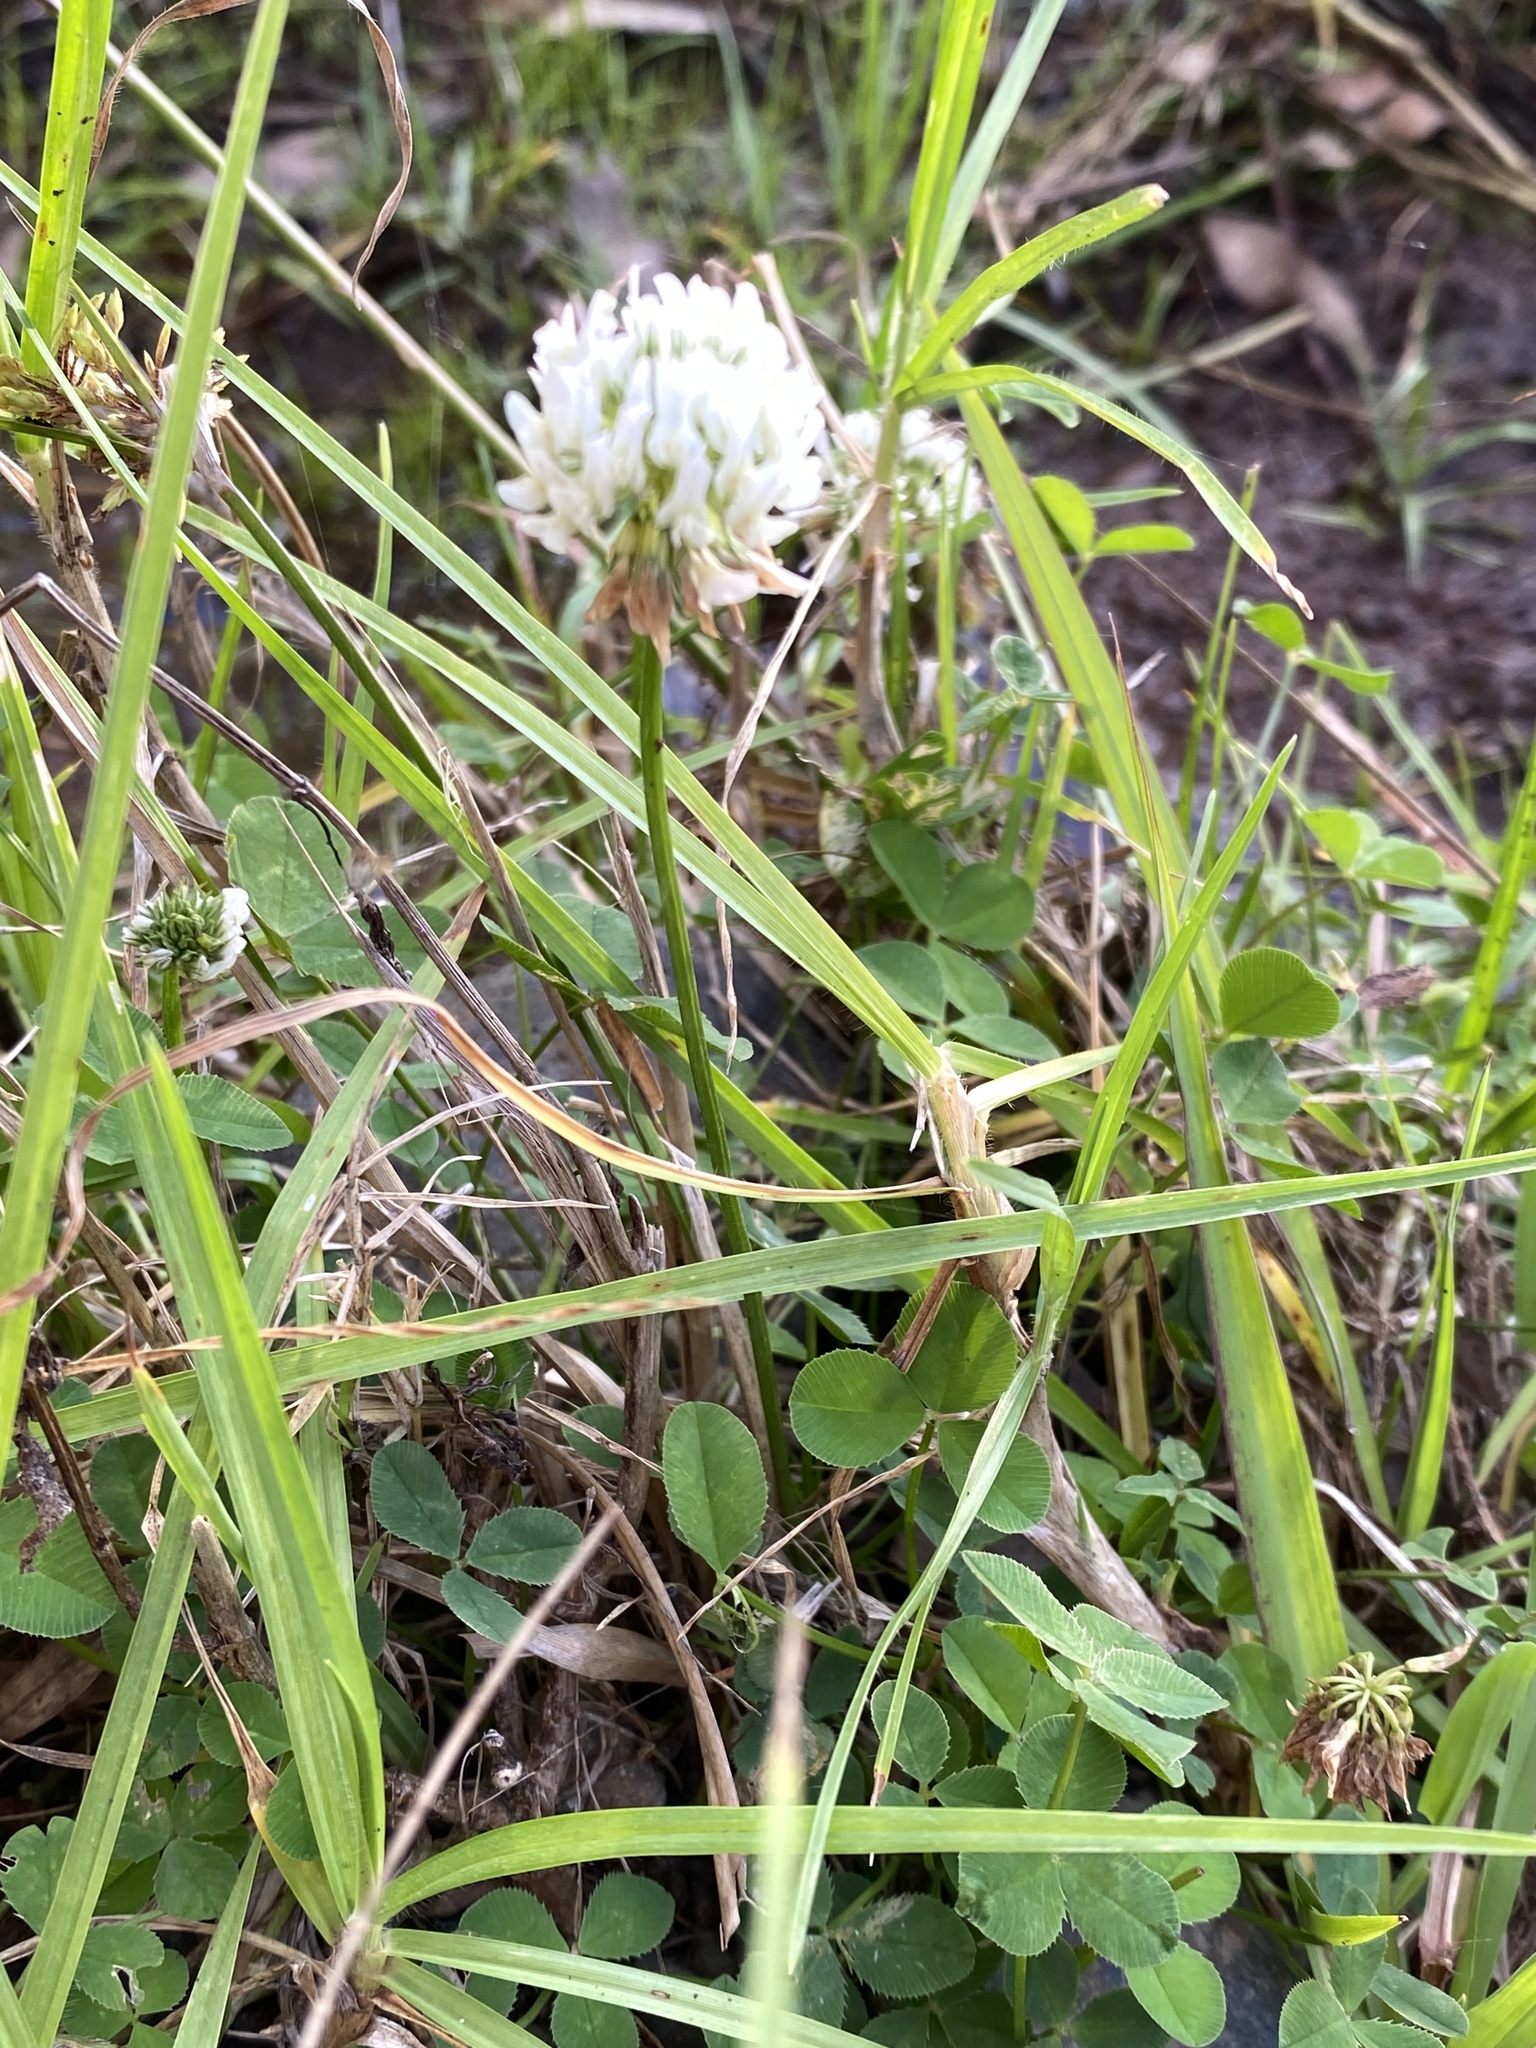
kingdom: Plantae
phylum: Tracheophyta
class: Magnoliopsida
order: Fabales
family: Fabaceae
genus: Trifolium
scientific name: Trifolium repens
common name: White clover
